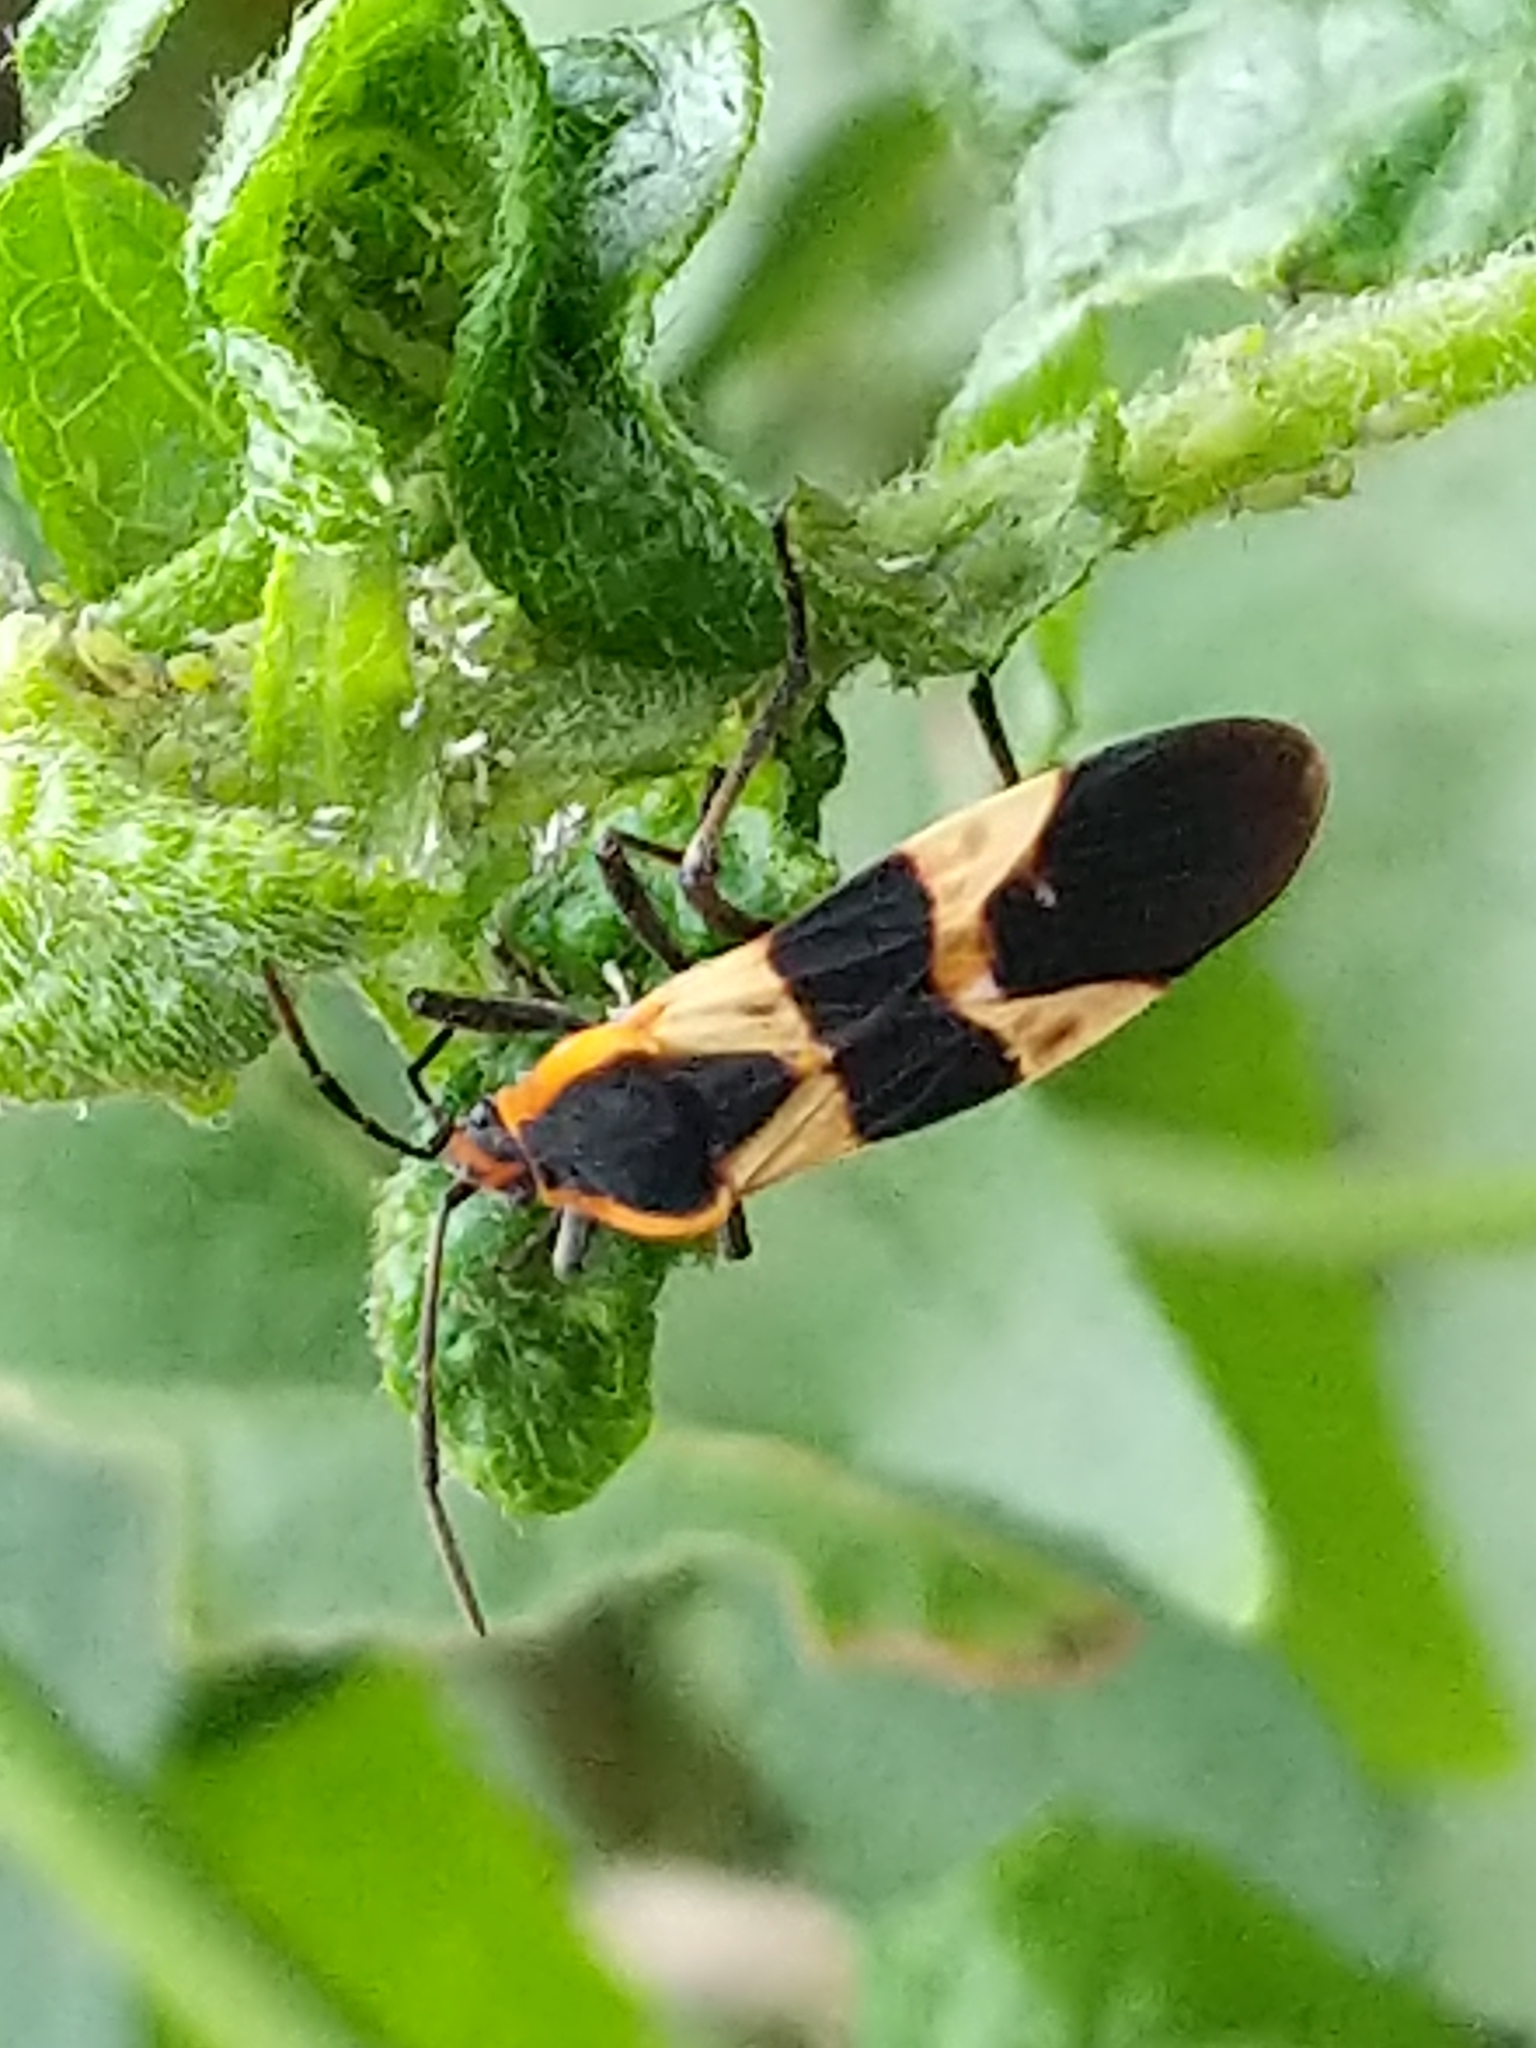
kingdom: Animalia
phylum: Arthropoda
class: Insecta
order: Hemiptera
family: Lygaeidae
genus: Oncopeltus
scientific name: Oncopeltus fasciatus
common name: Large milkweed bug
